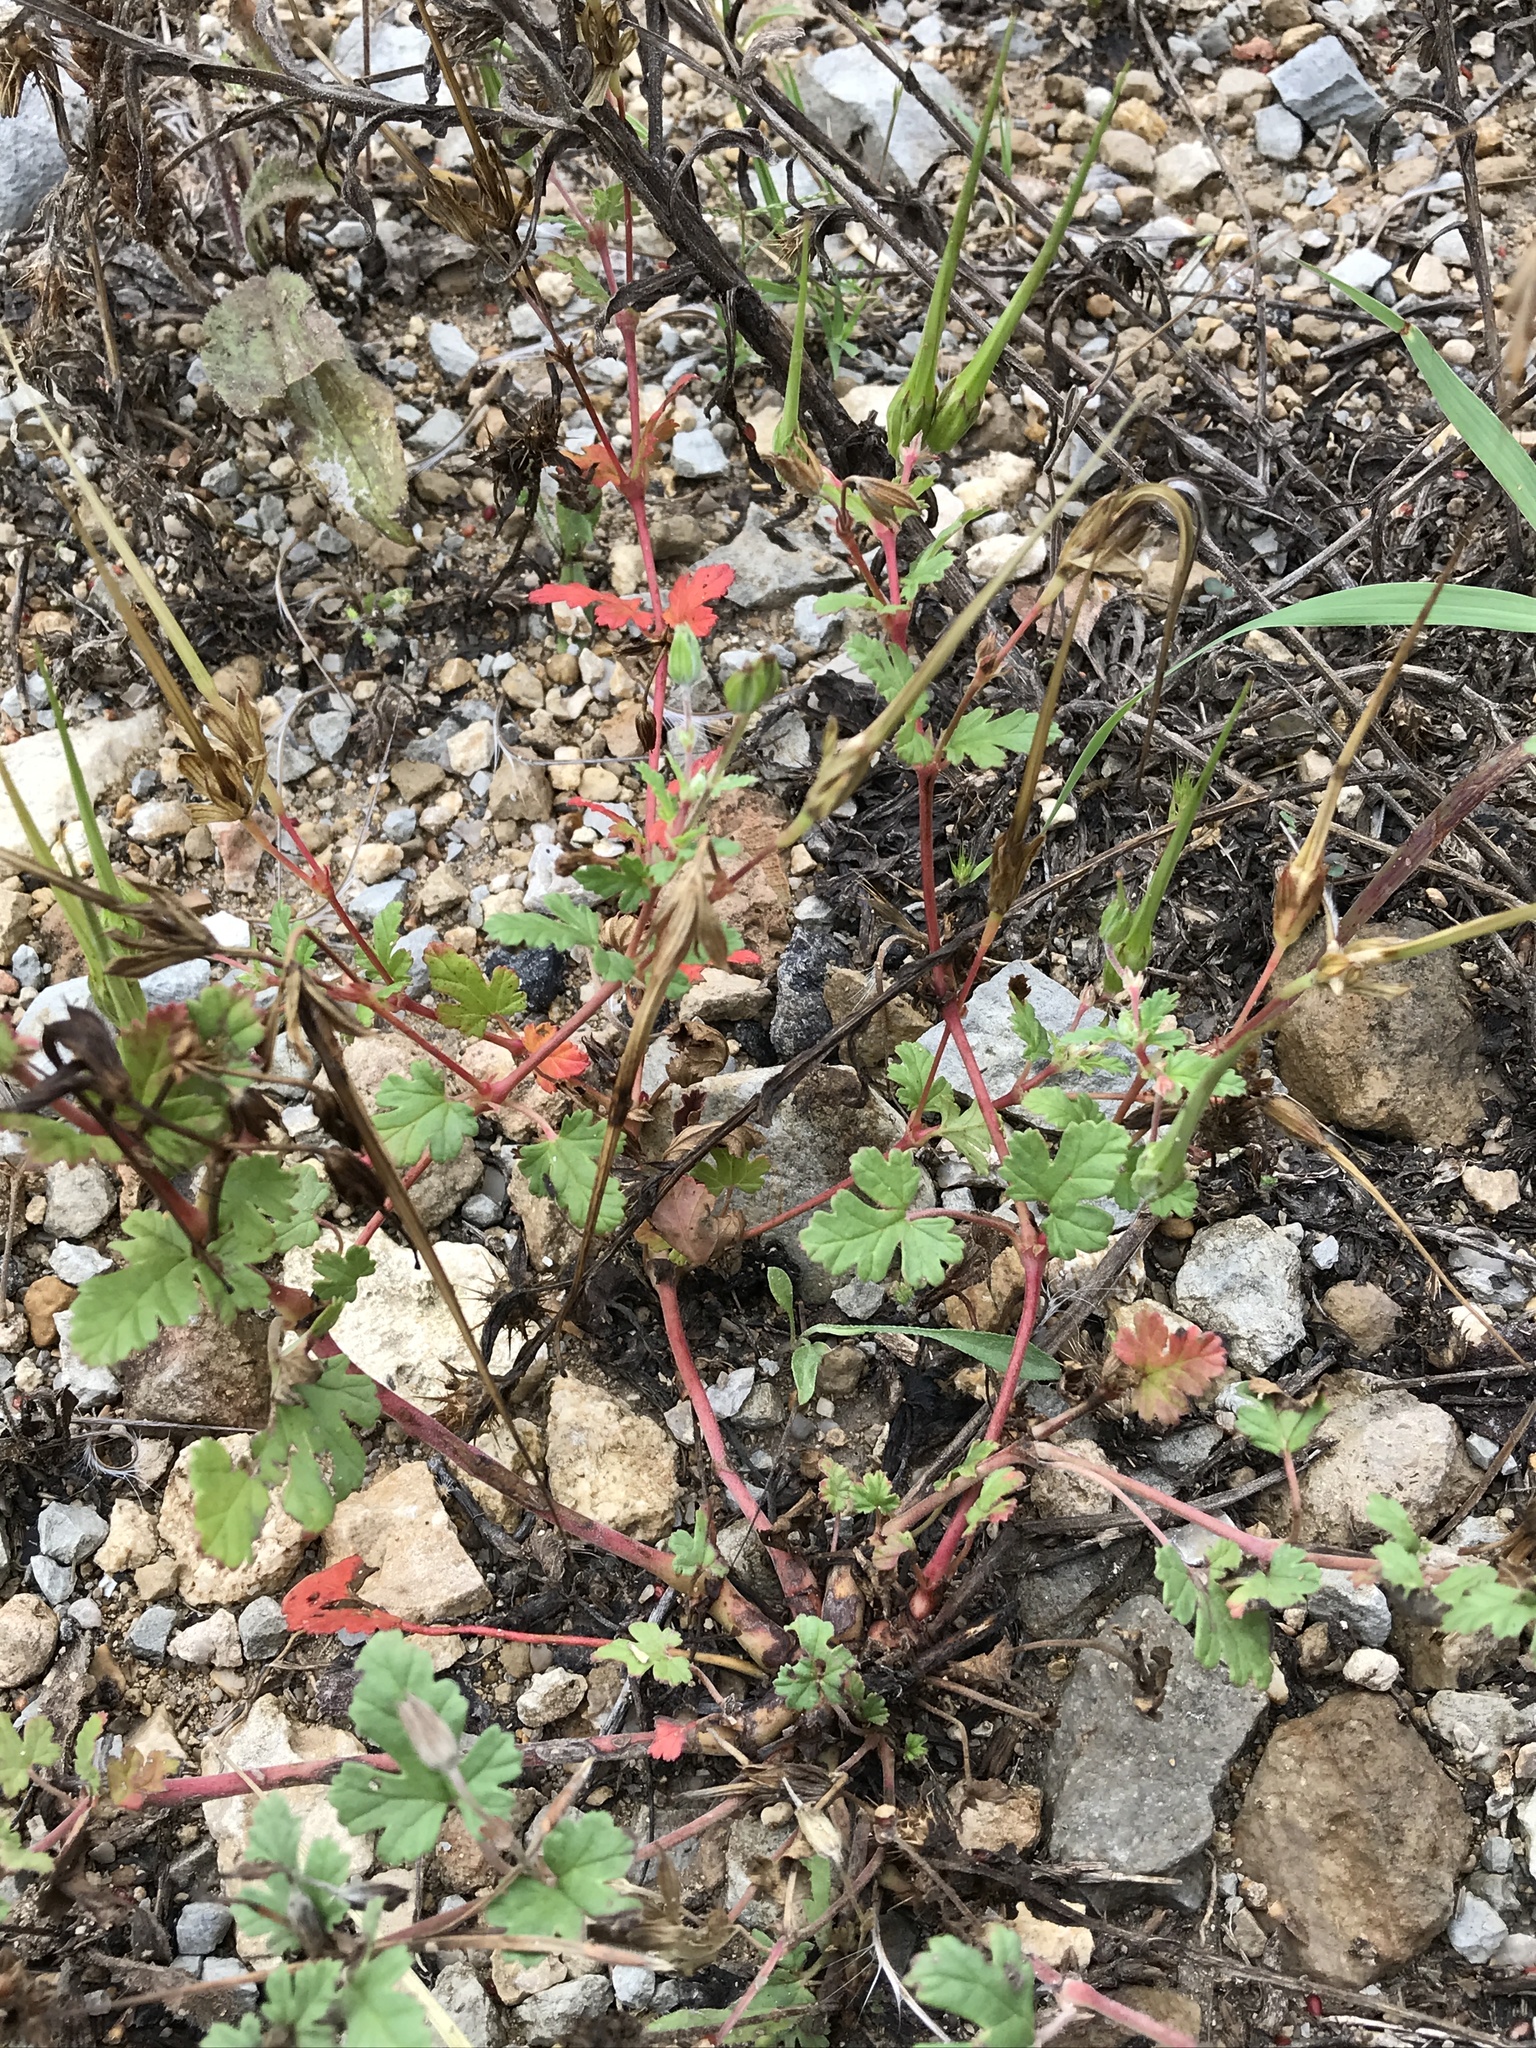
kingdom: Plantae
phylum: Tracheophyta
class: Magnoliopsida
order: Geraniales
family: Geraniaceae
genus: Erodium
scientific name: Erodium texanum
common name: Texas stork's-bill
